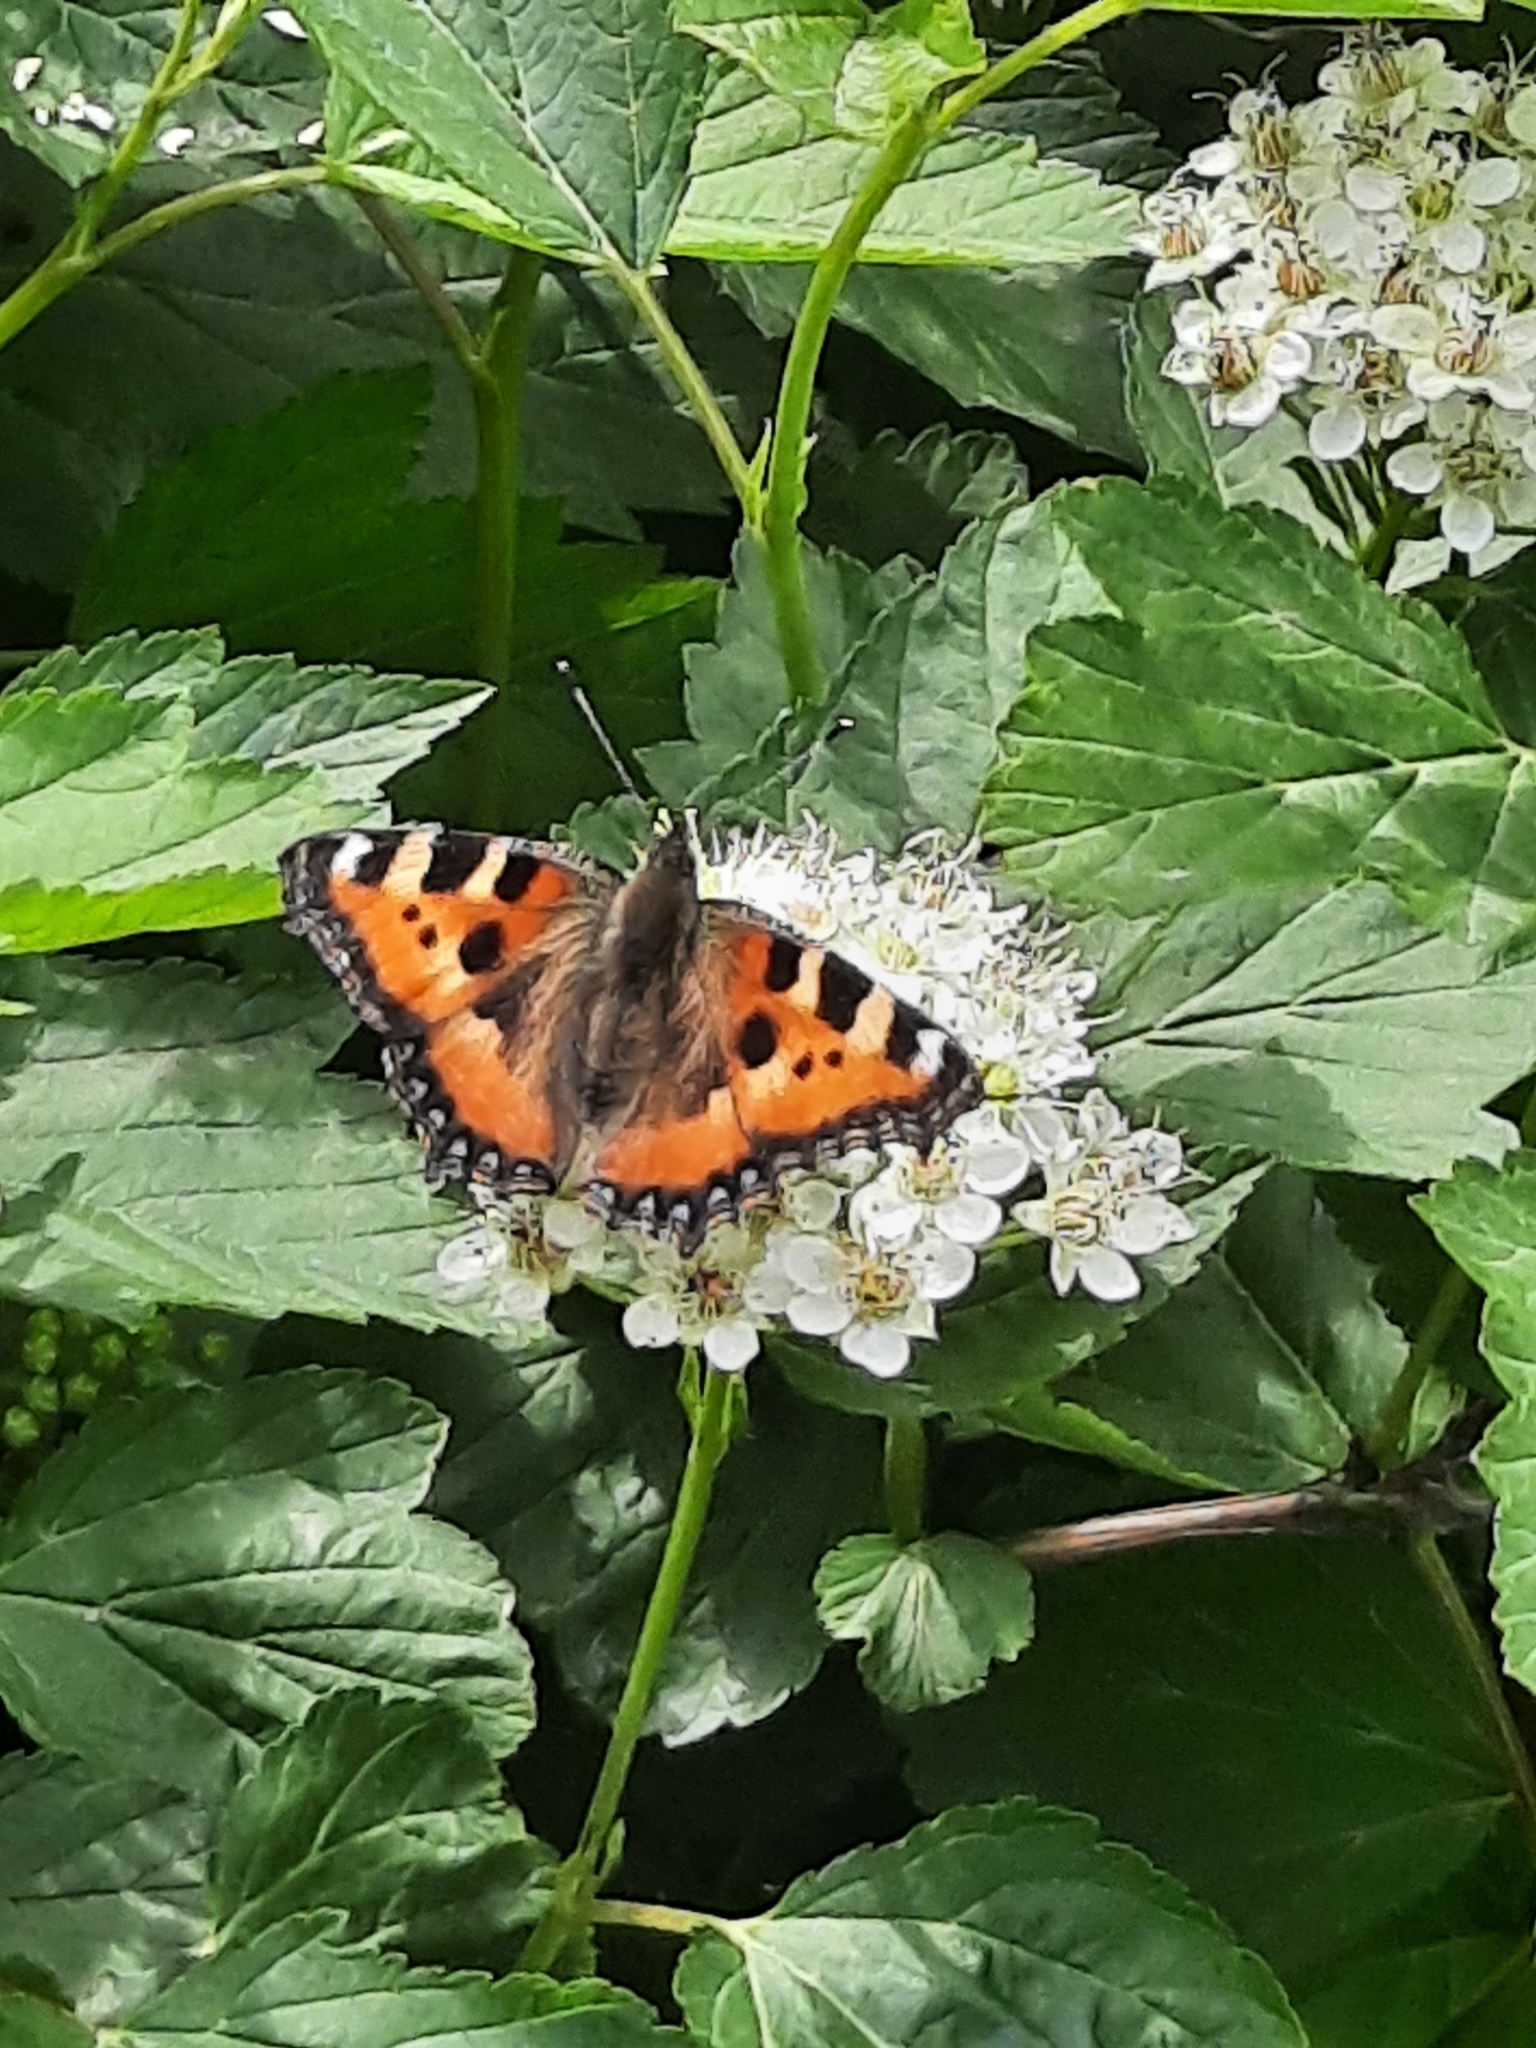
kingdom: Animalia
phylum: Arthropoda
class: Insecta
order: Lepidoptera
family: Nymphalidae
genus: Aglais
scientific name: Aglais urticae
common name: Small tortoiseshell
